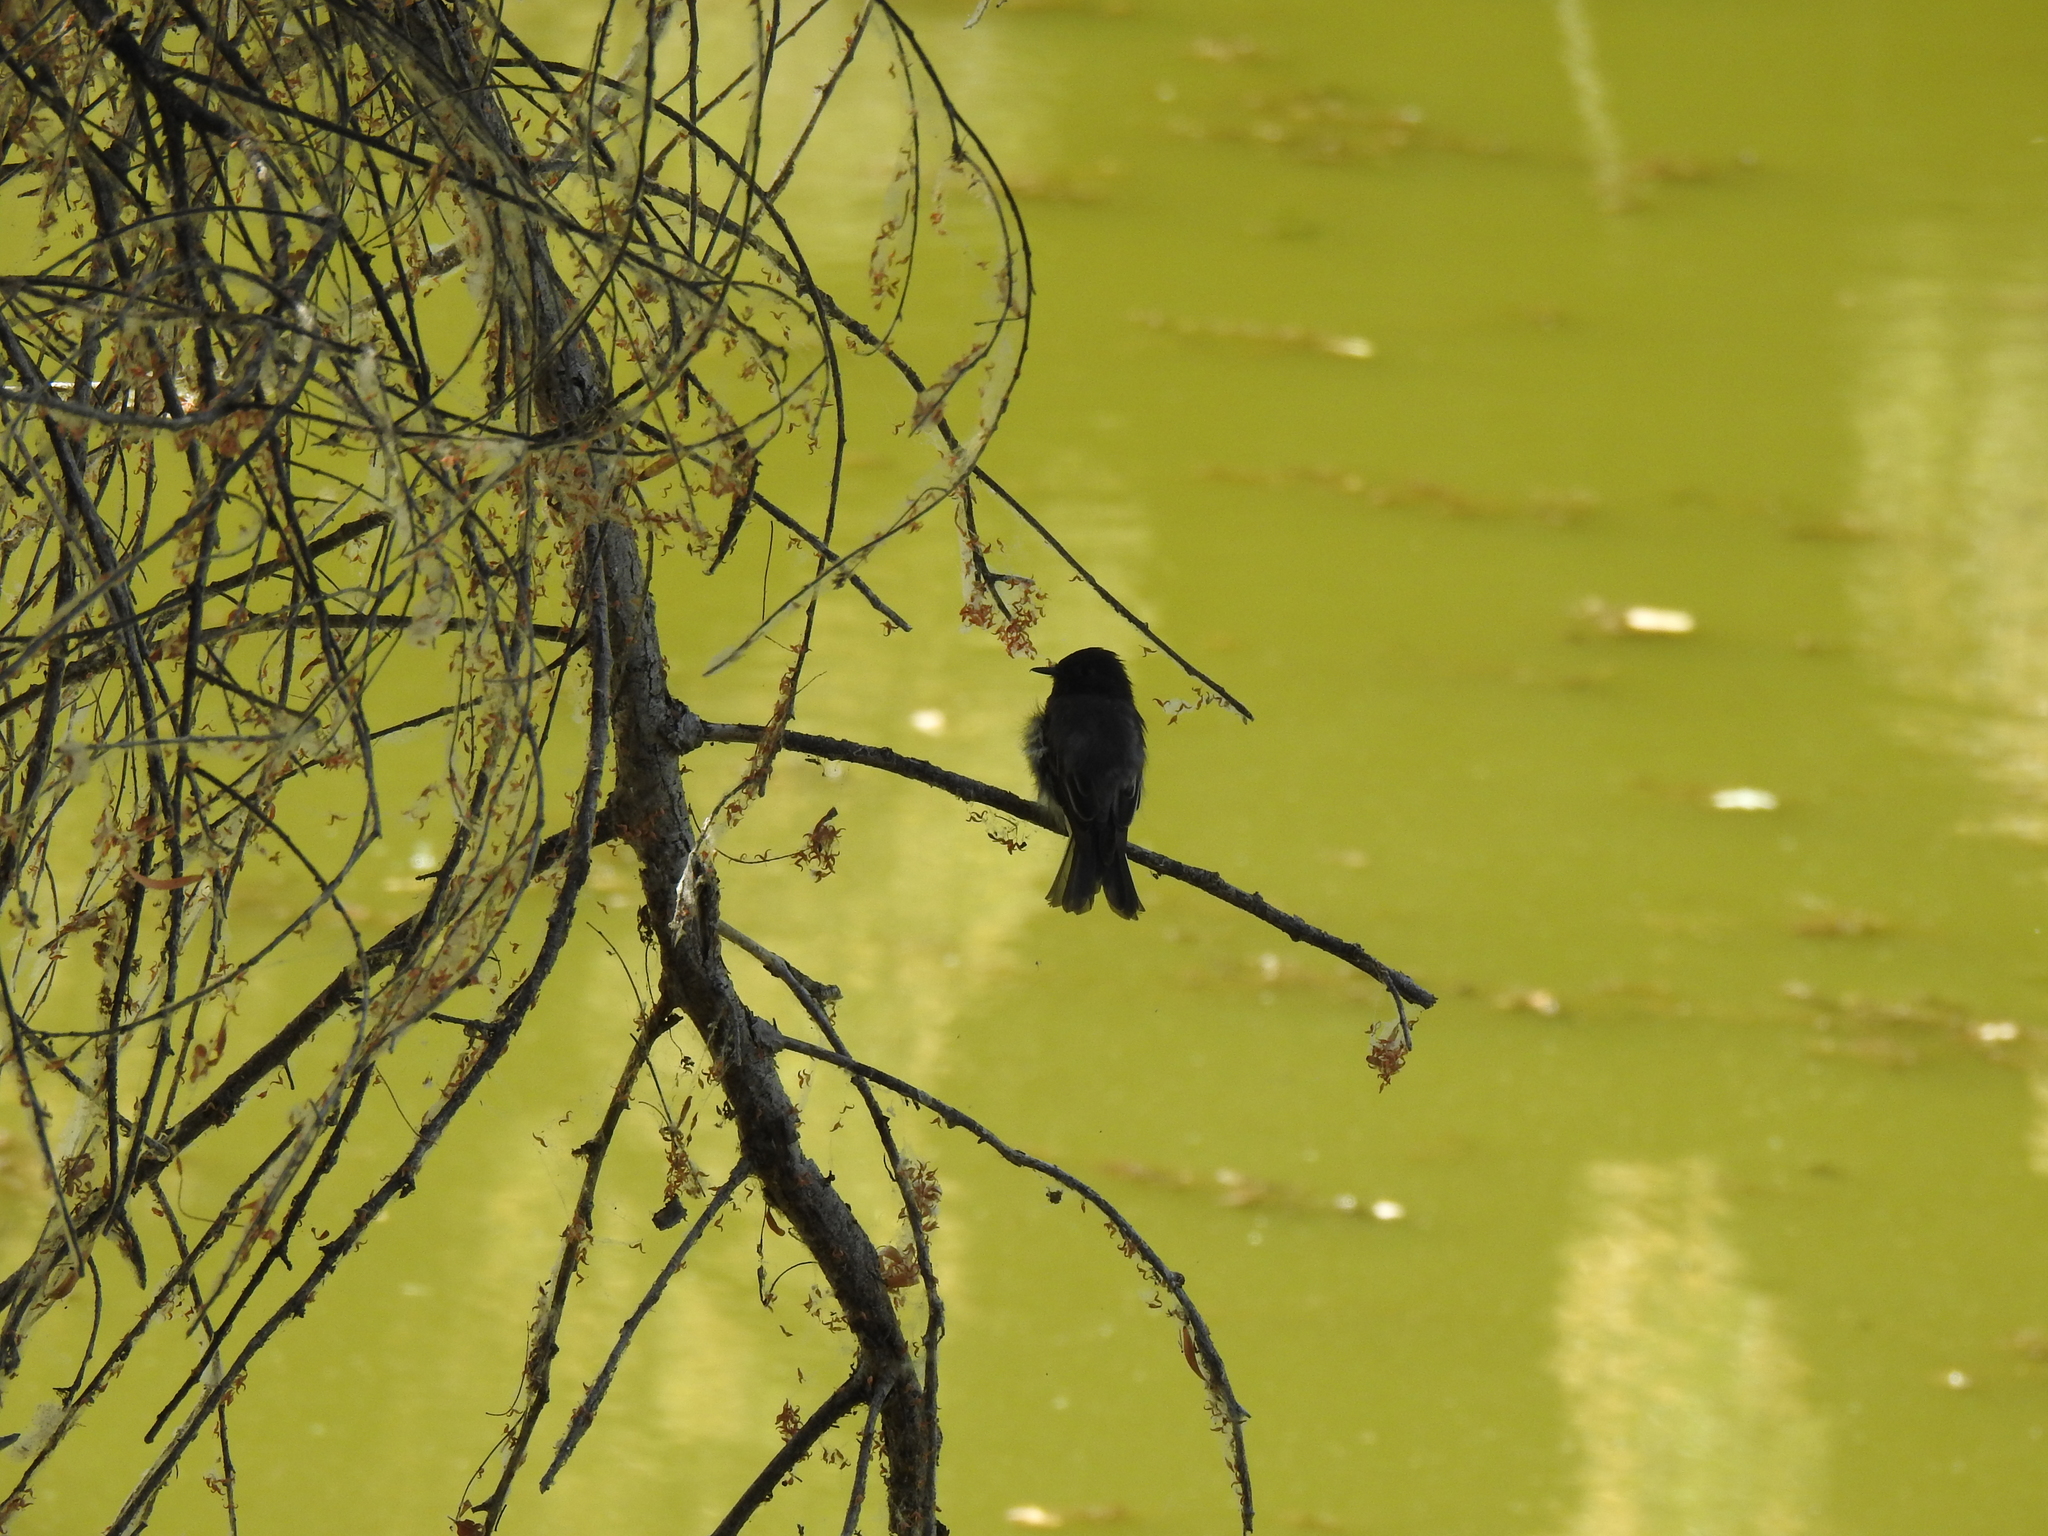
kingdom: Animalia
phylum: Chordata
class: Aves
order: Passeriformes
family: Tyrannidae
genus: Sayornis
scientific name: Sayornis nigricans
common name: Black phoebe
